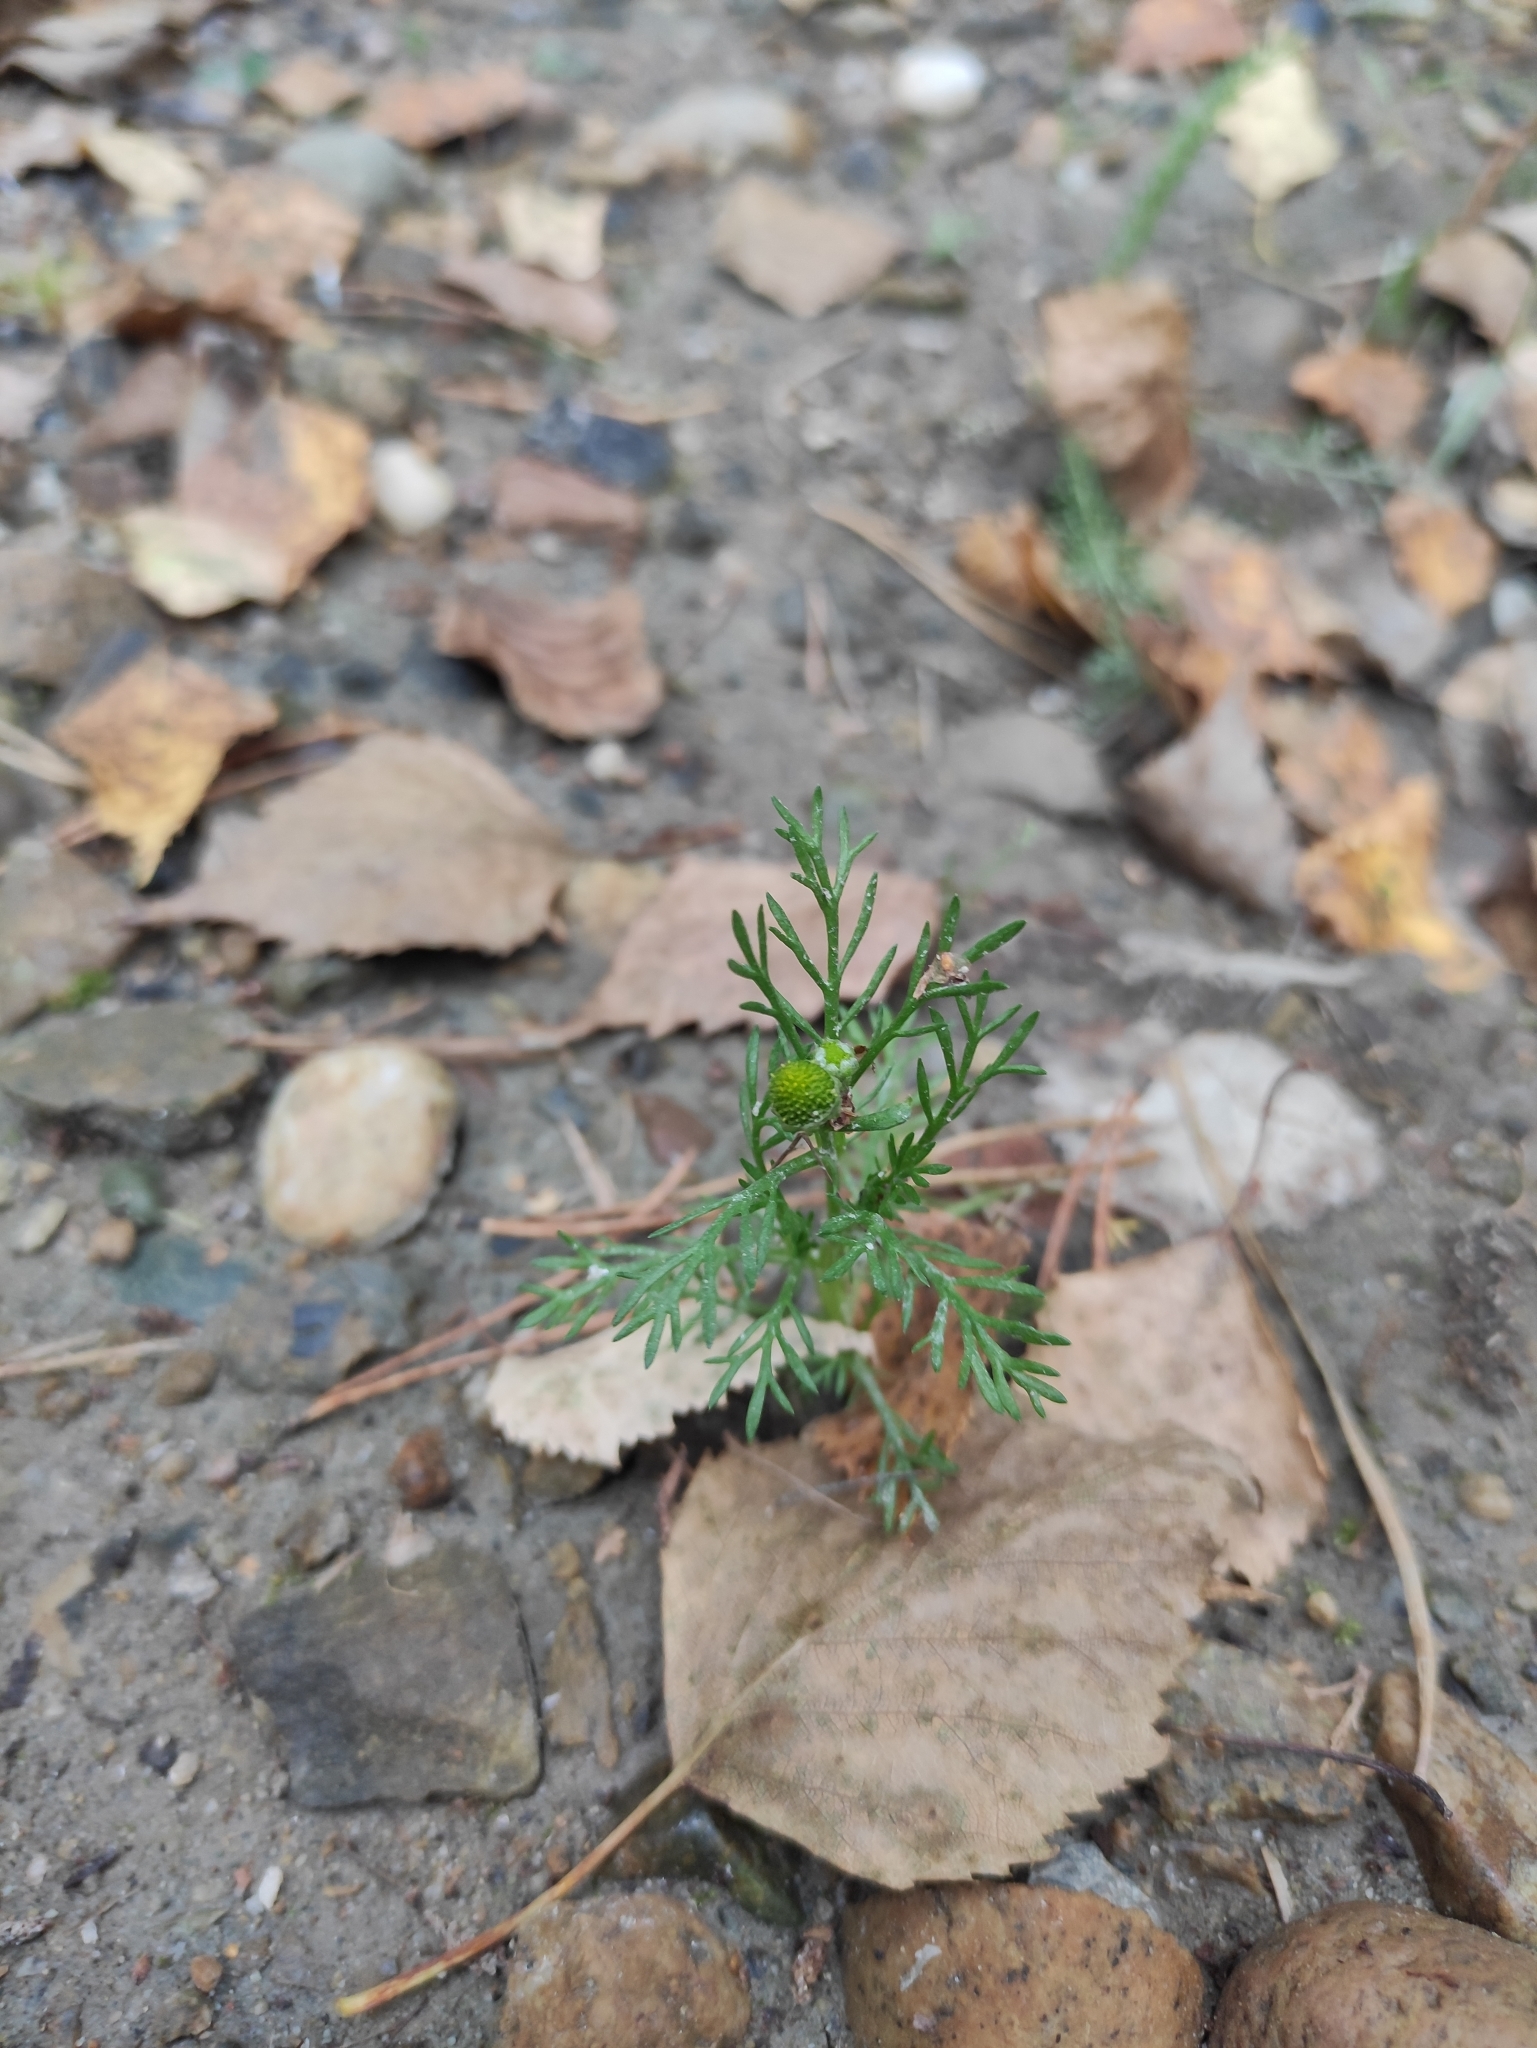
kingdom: Plantae
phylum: Tracheophyta
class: Magnoliopsida
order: Asterales
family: Asteraceae
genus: Matricaria
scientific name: Matricaria discoidea
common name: Disc mayweed
